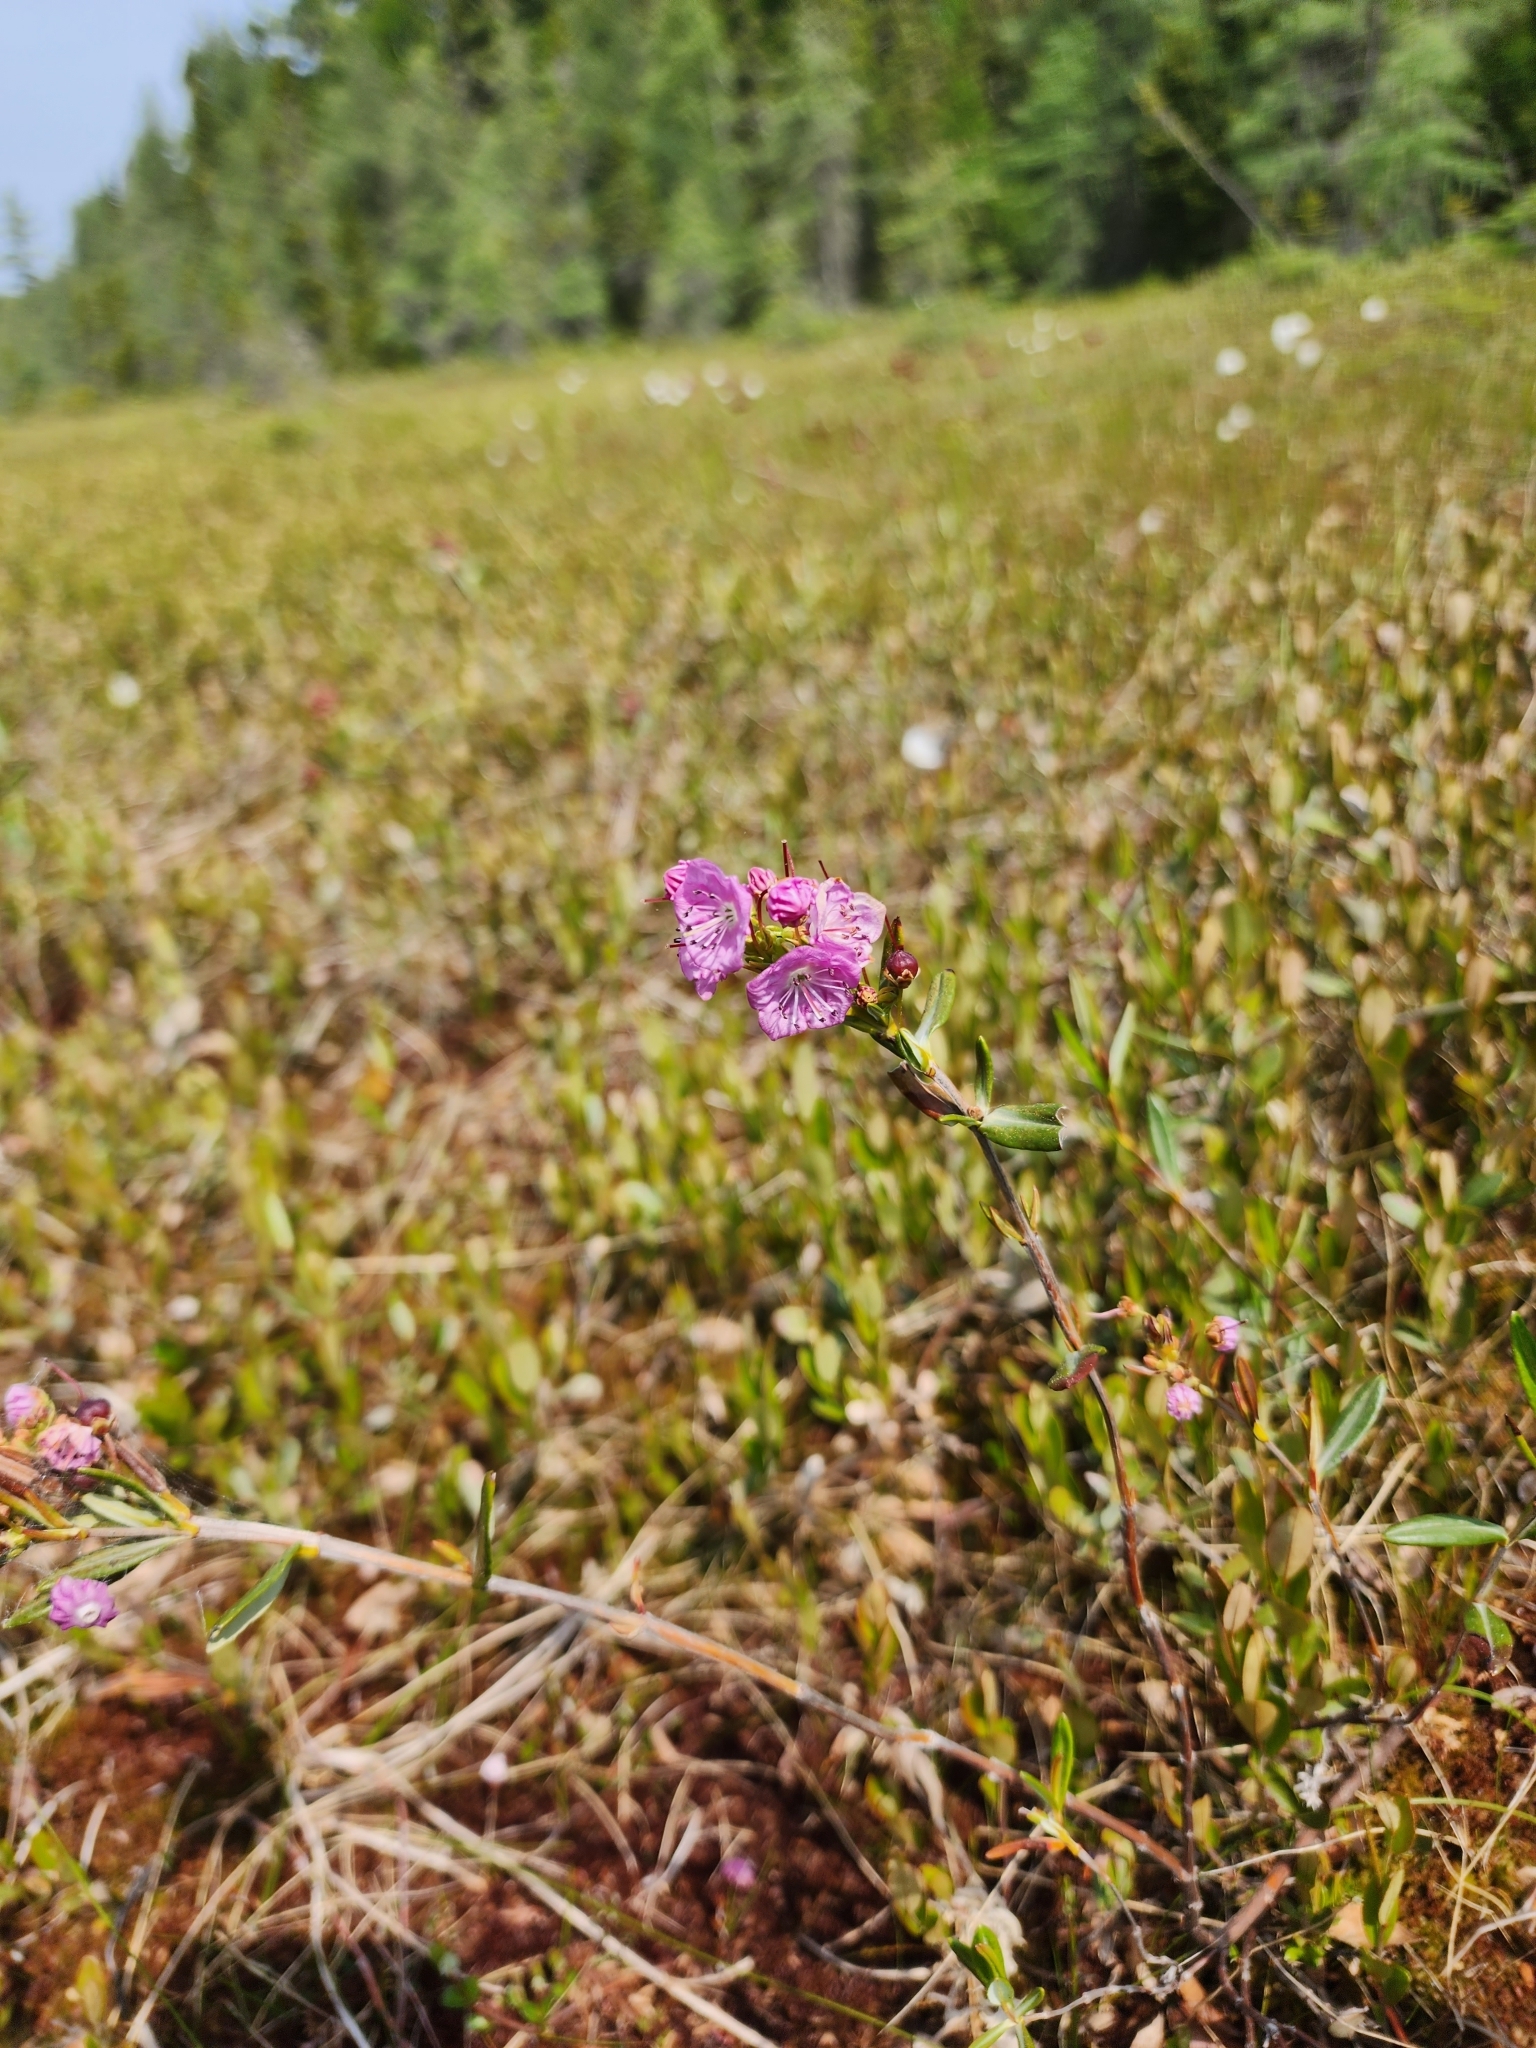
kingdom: Plantae
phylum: Tracheophyta
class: Magnoliopsida
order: Ericales
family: Ericaceae
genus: Kalmia
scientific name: Kalmia polifolia
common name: Bog-laurel
